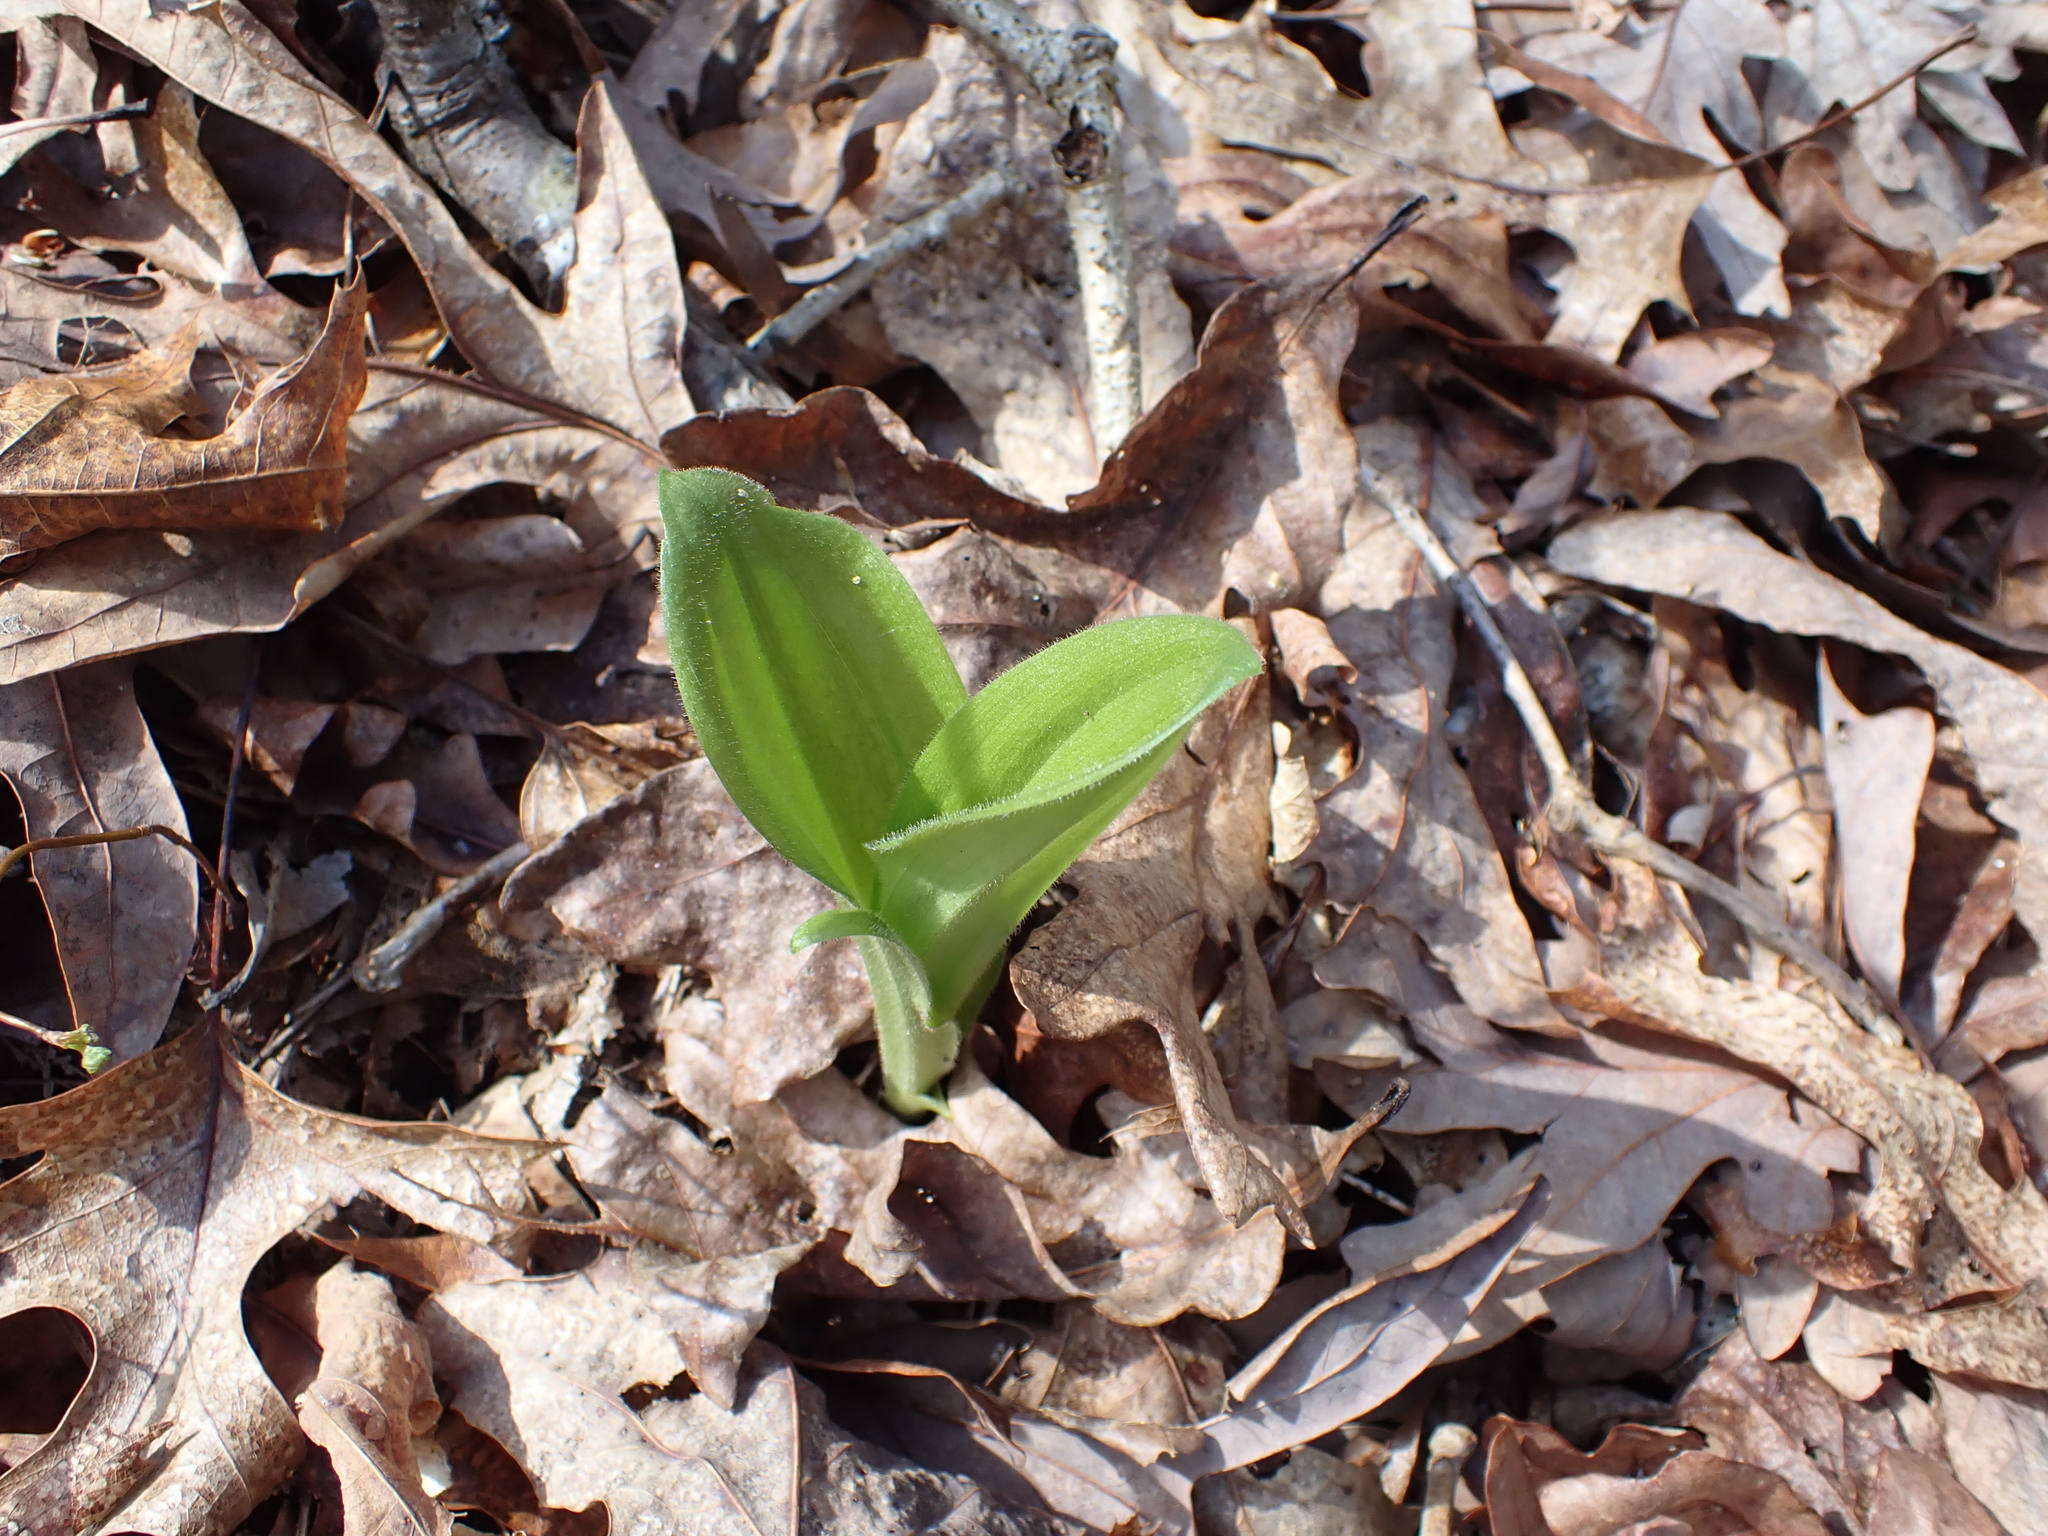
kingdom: Plantae
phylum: Tracheophyta
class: Liliopsida
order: Asparagales
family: Orchidaceae
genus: Cypripedium
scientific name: Cypripedium acaule
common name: Pink lady's-slipper
